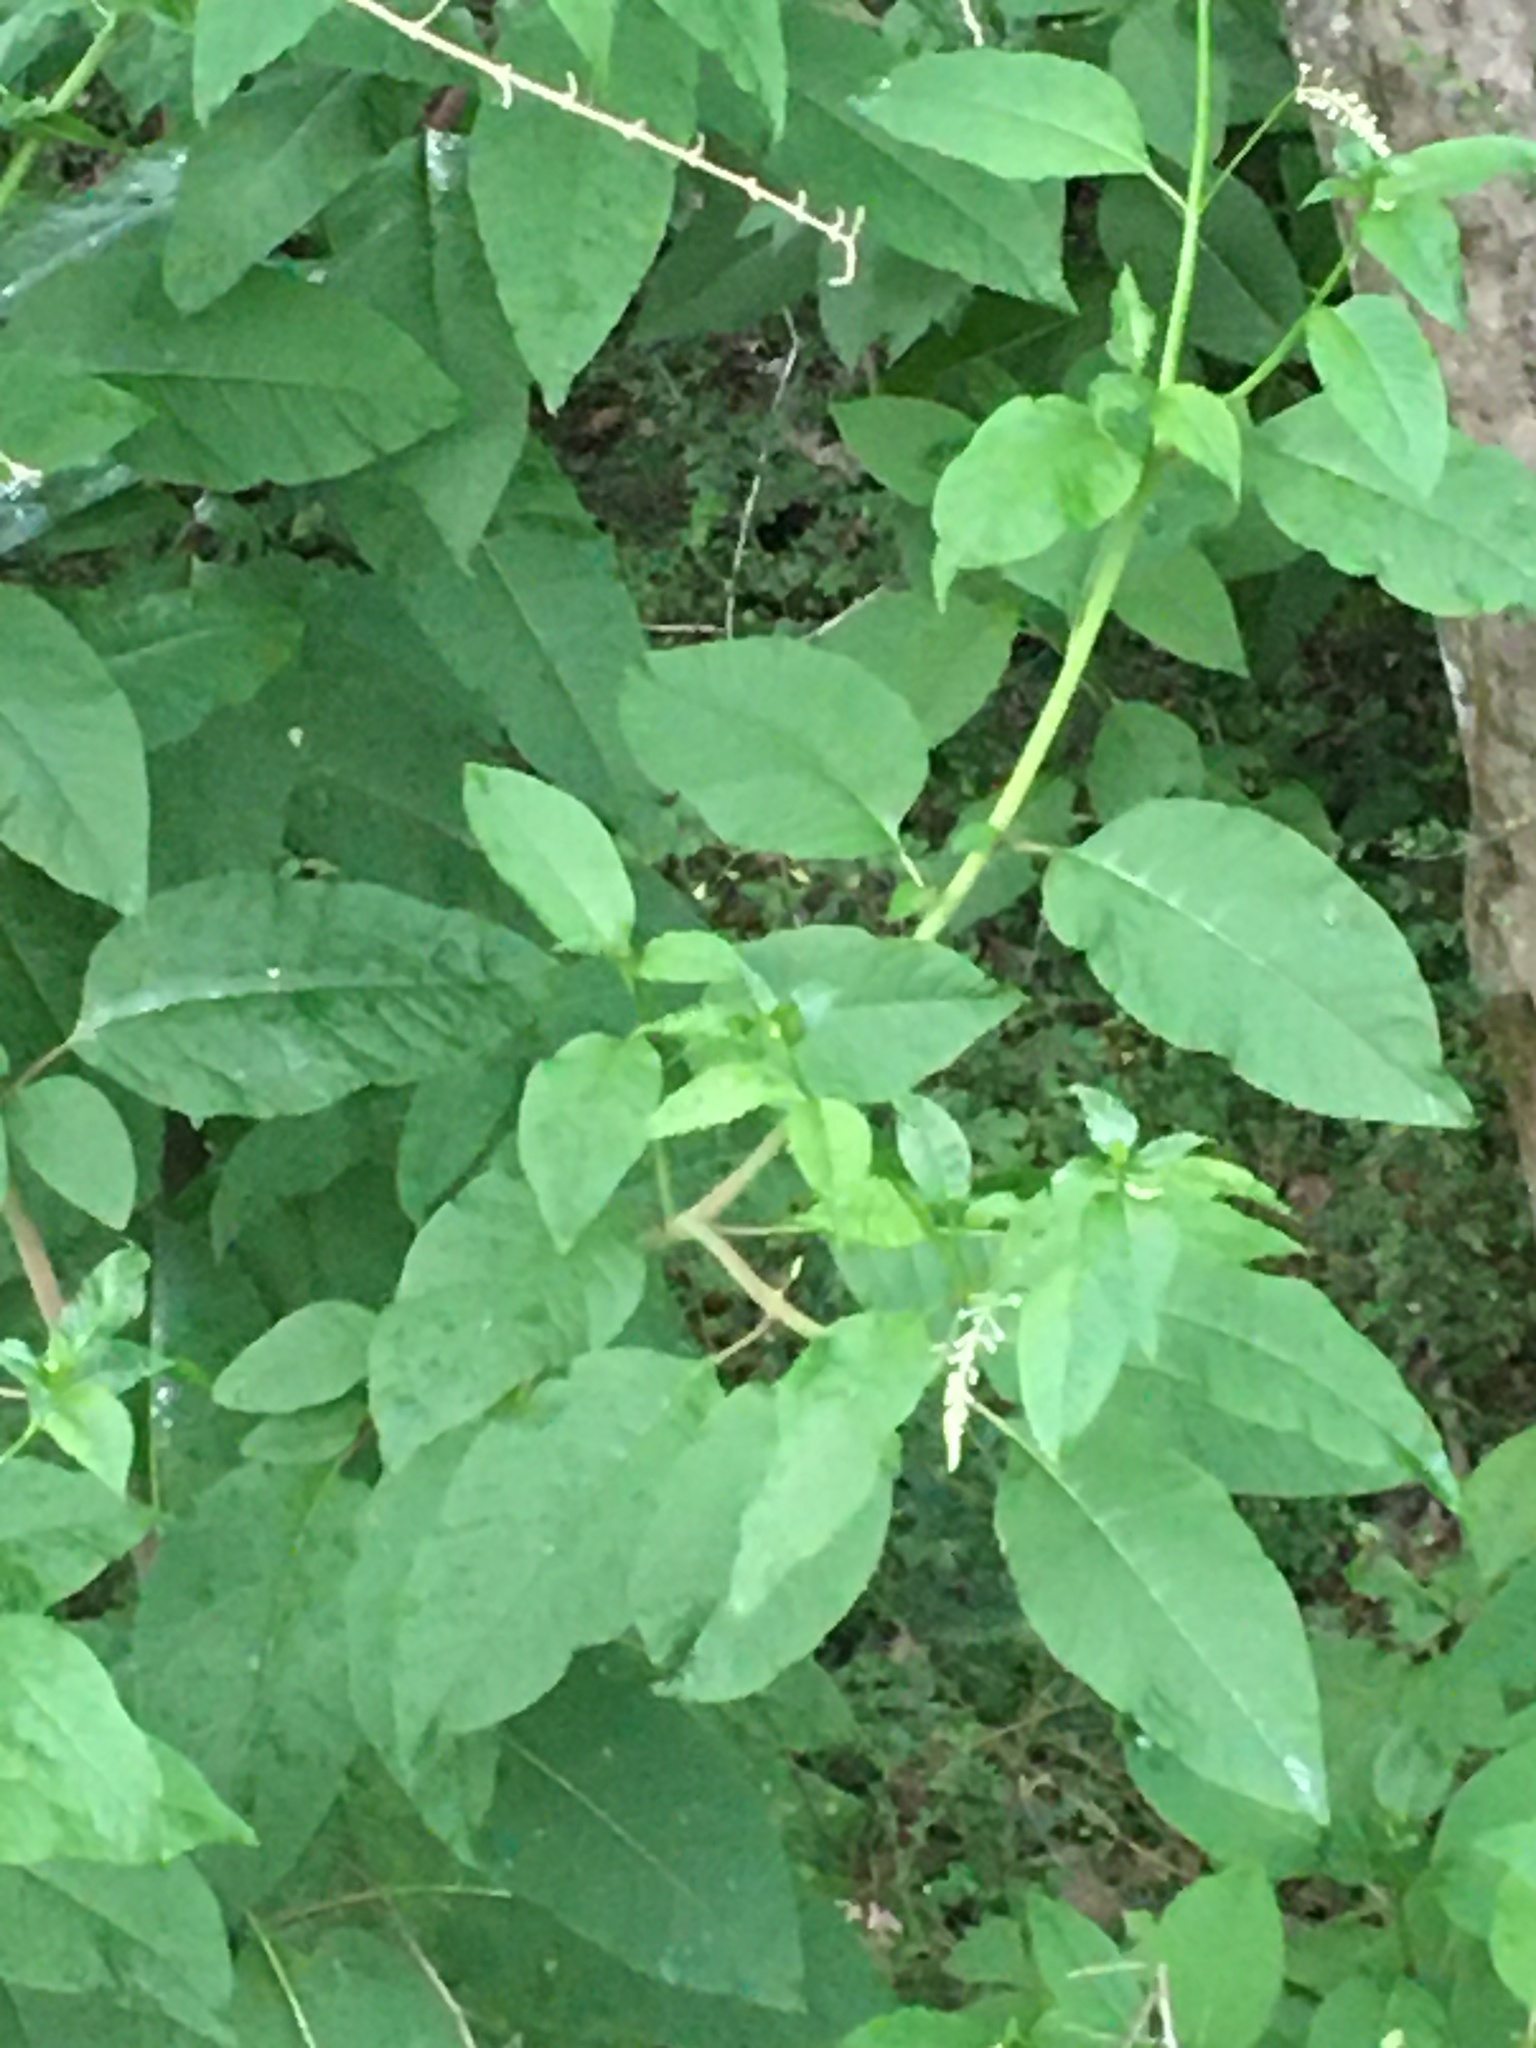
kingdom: Plantae
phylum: Tracheophyta
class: Magnoliopsida
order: Caryophyllales
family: Phytolaccaceae
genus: Phytolacca
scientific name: Phytolacca americana
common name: American pokeweed
